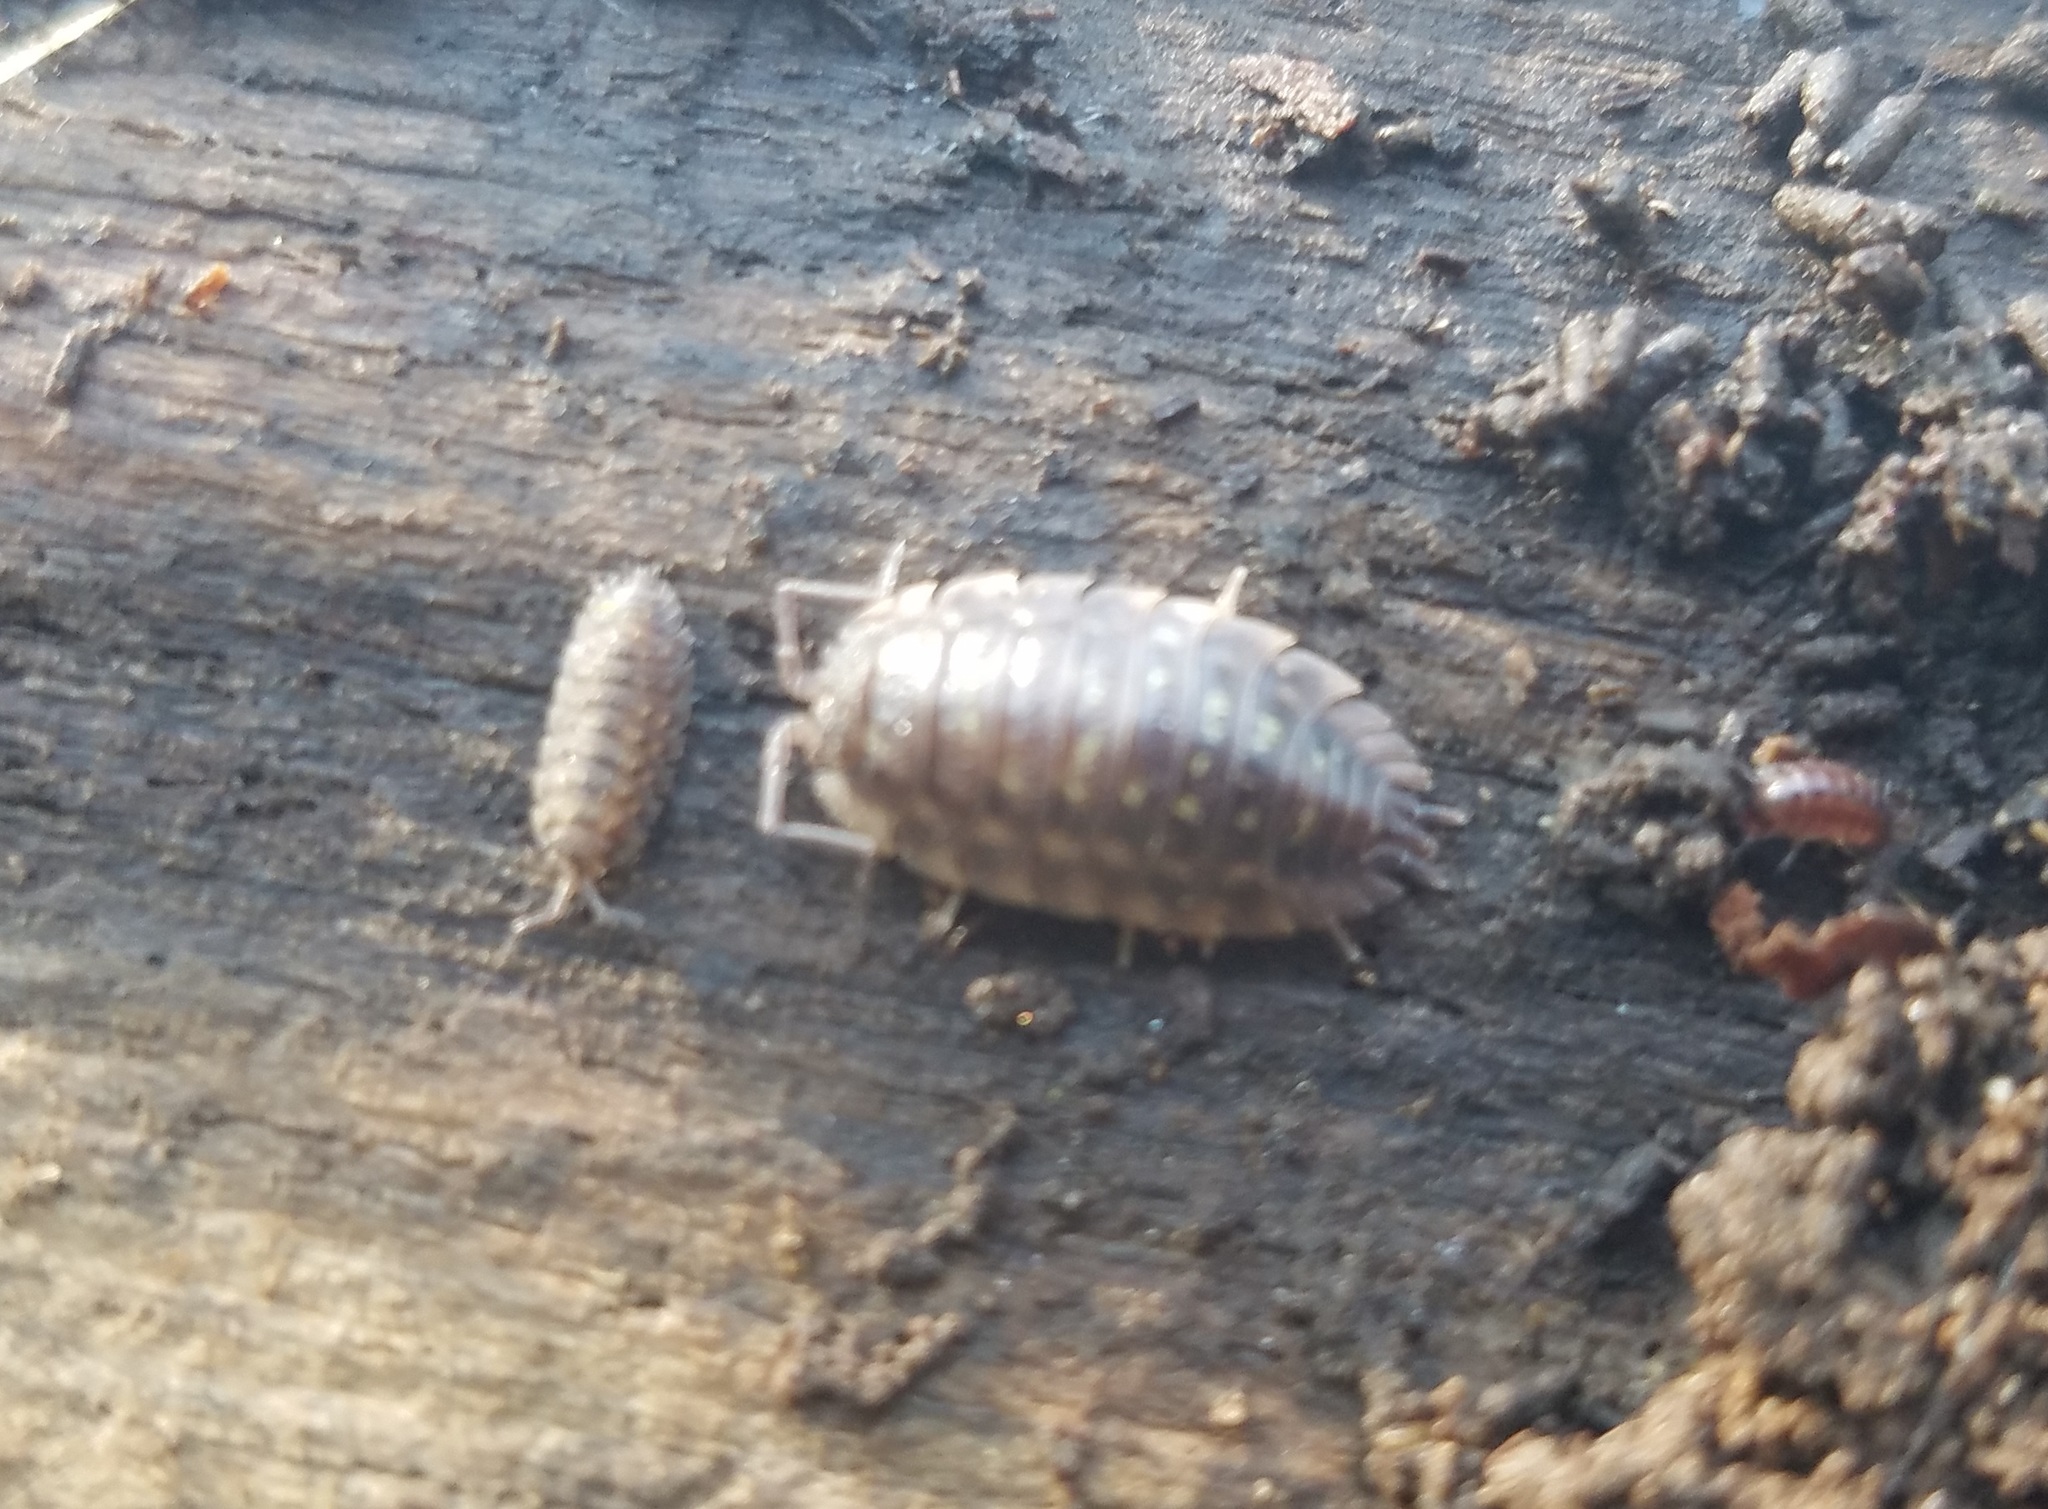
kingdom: Animalia
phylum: Arthropoda
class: Malacostraca
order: Isopoda
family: Oniscidae
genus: Oniscus
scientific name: Oniscus asellus
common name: Common shiny woodlouse
